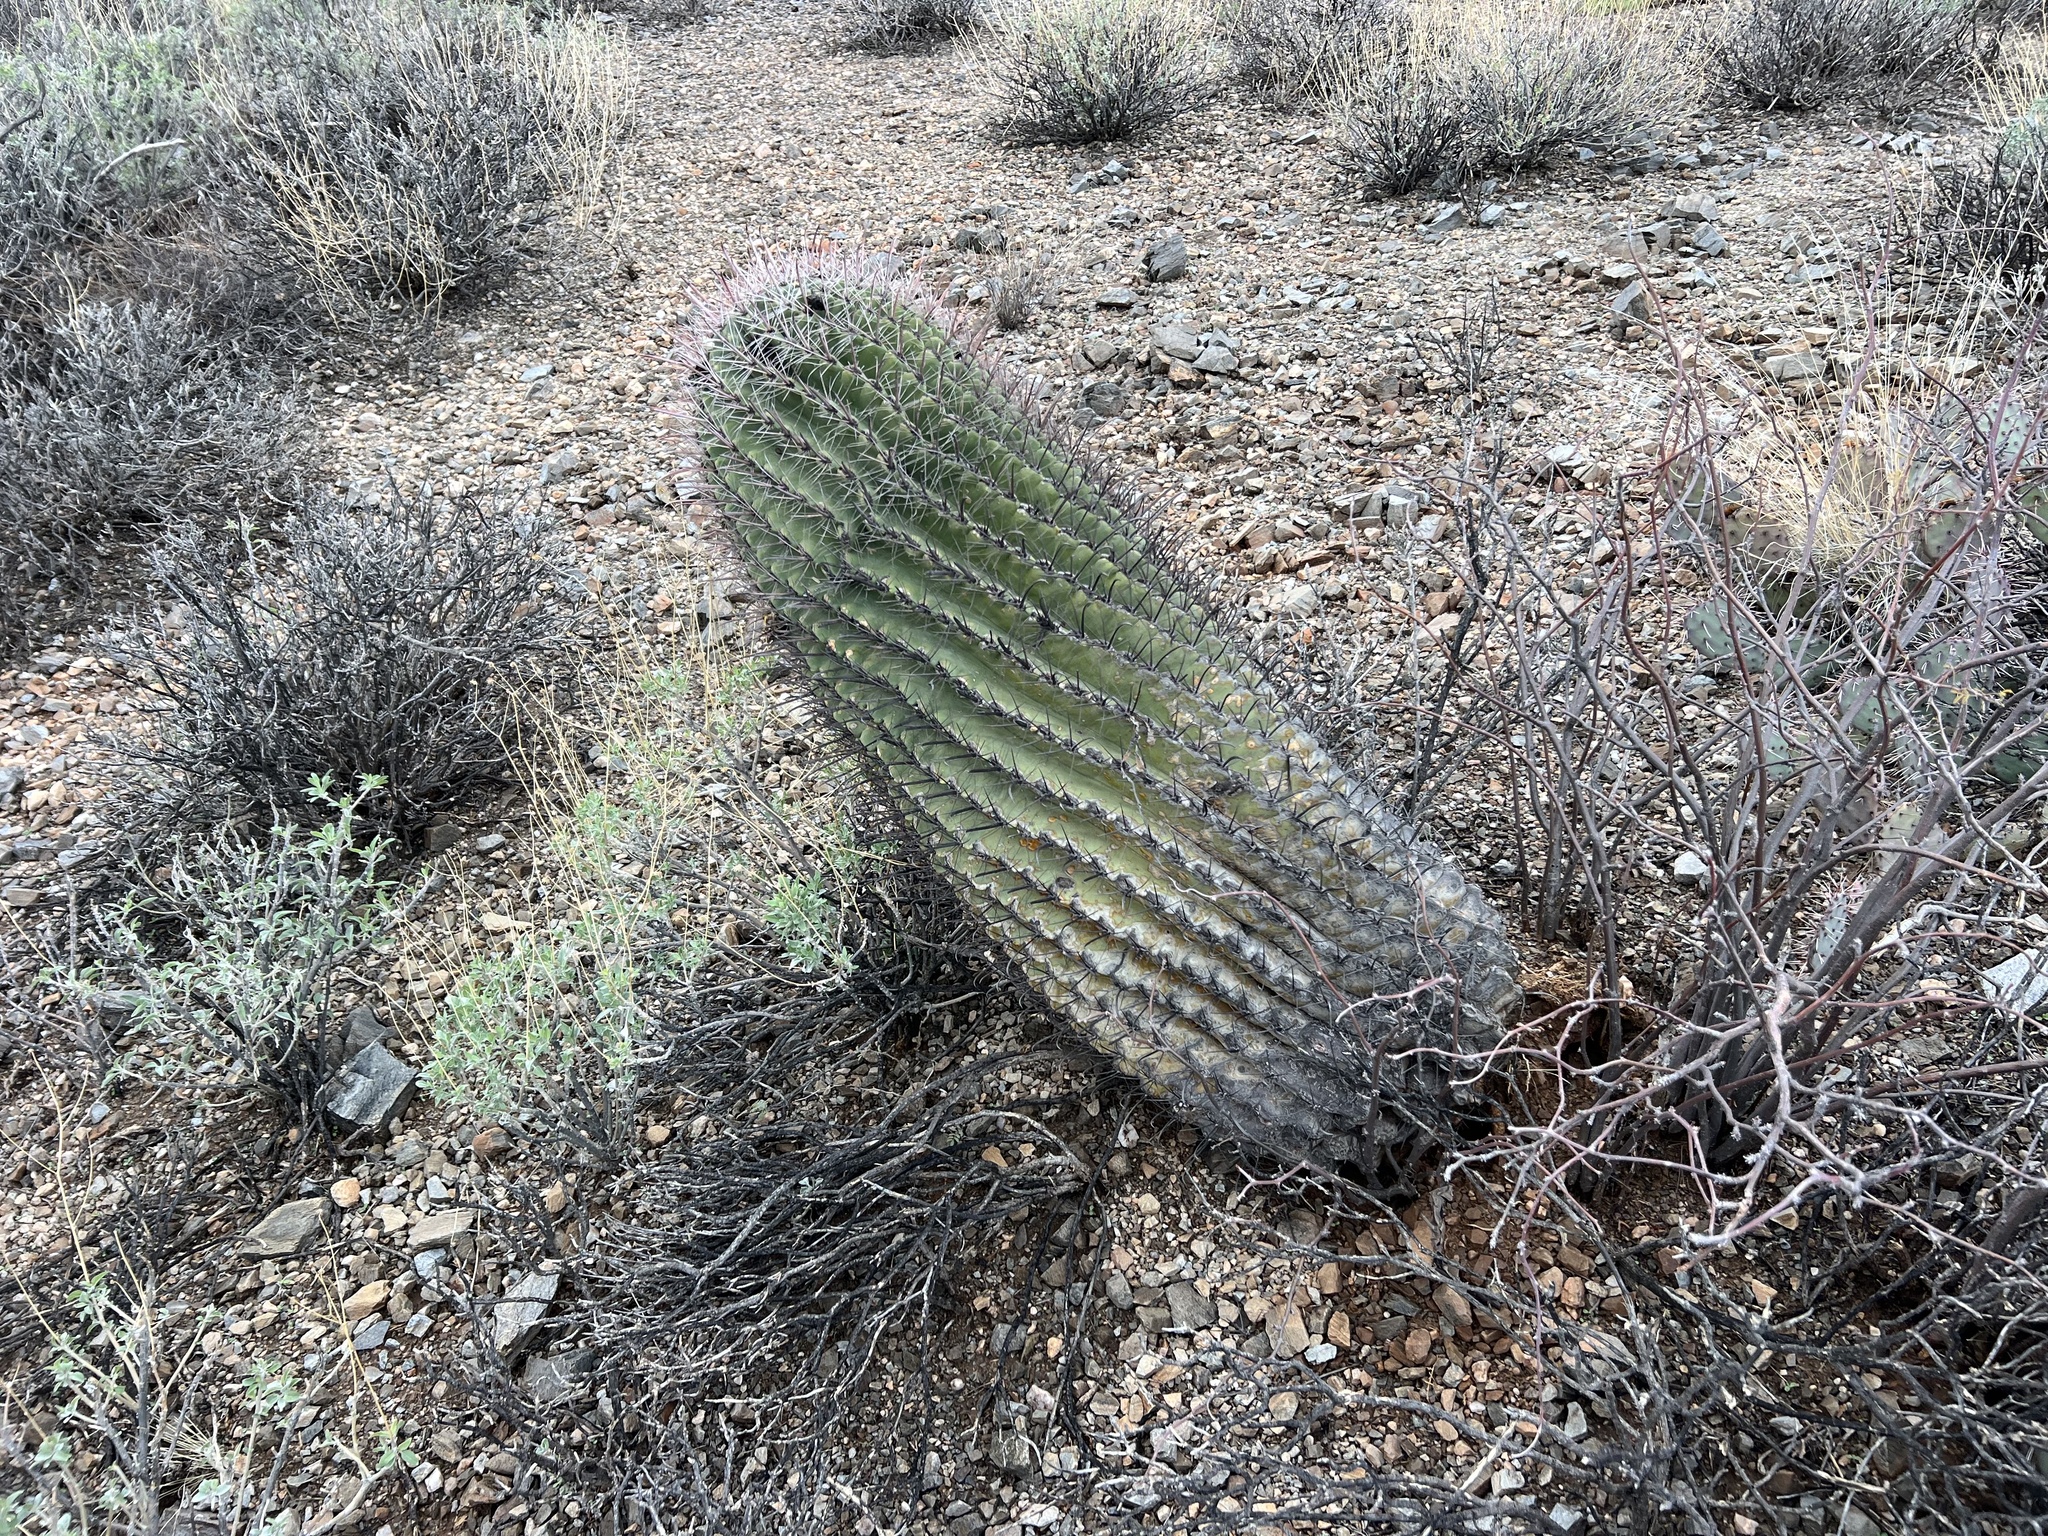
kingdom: Plantae
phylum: Tracheophyta
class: Magnoliopsida
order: Caryophyllales
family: Cactaceae
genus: Ferocactus
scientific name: Ferocactus wislizeni
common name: Candy barrel cactus
